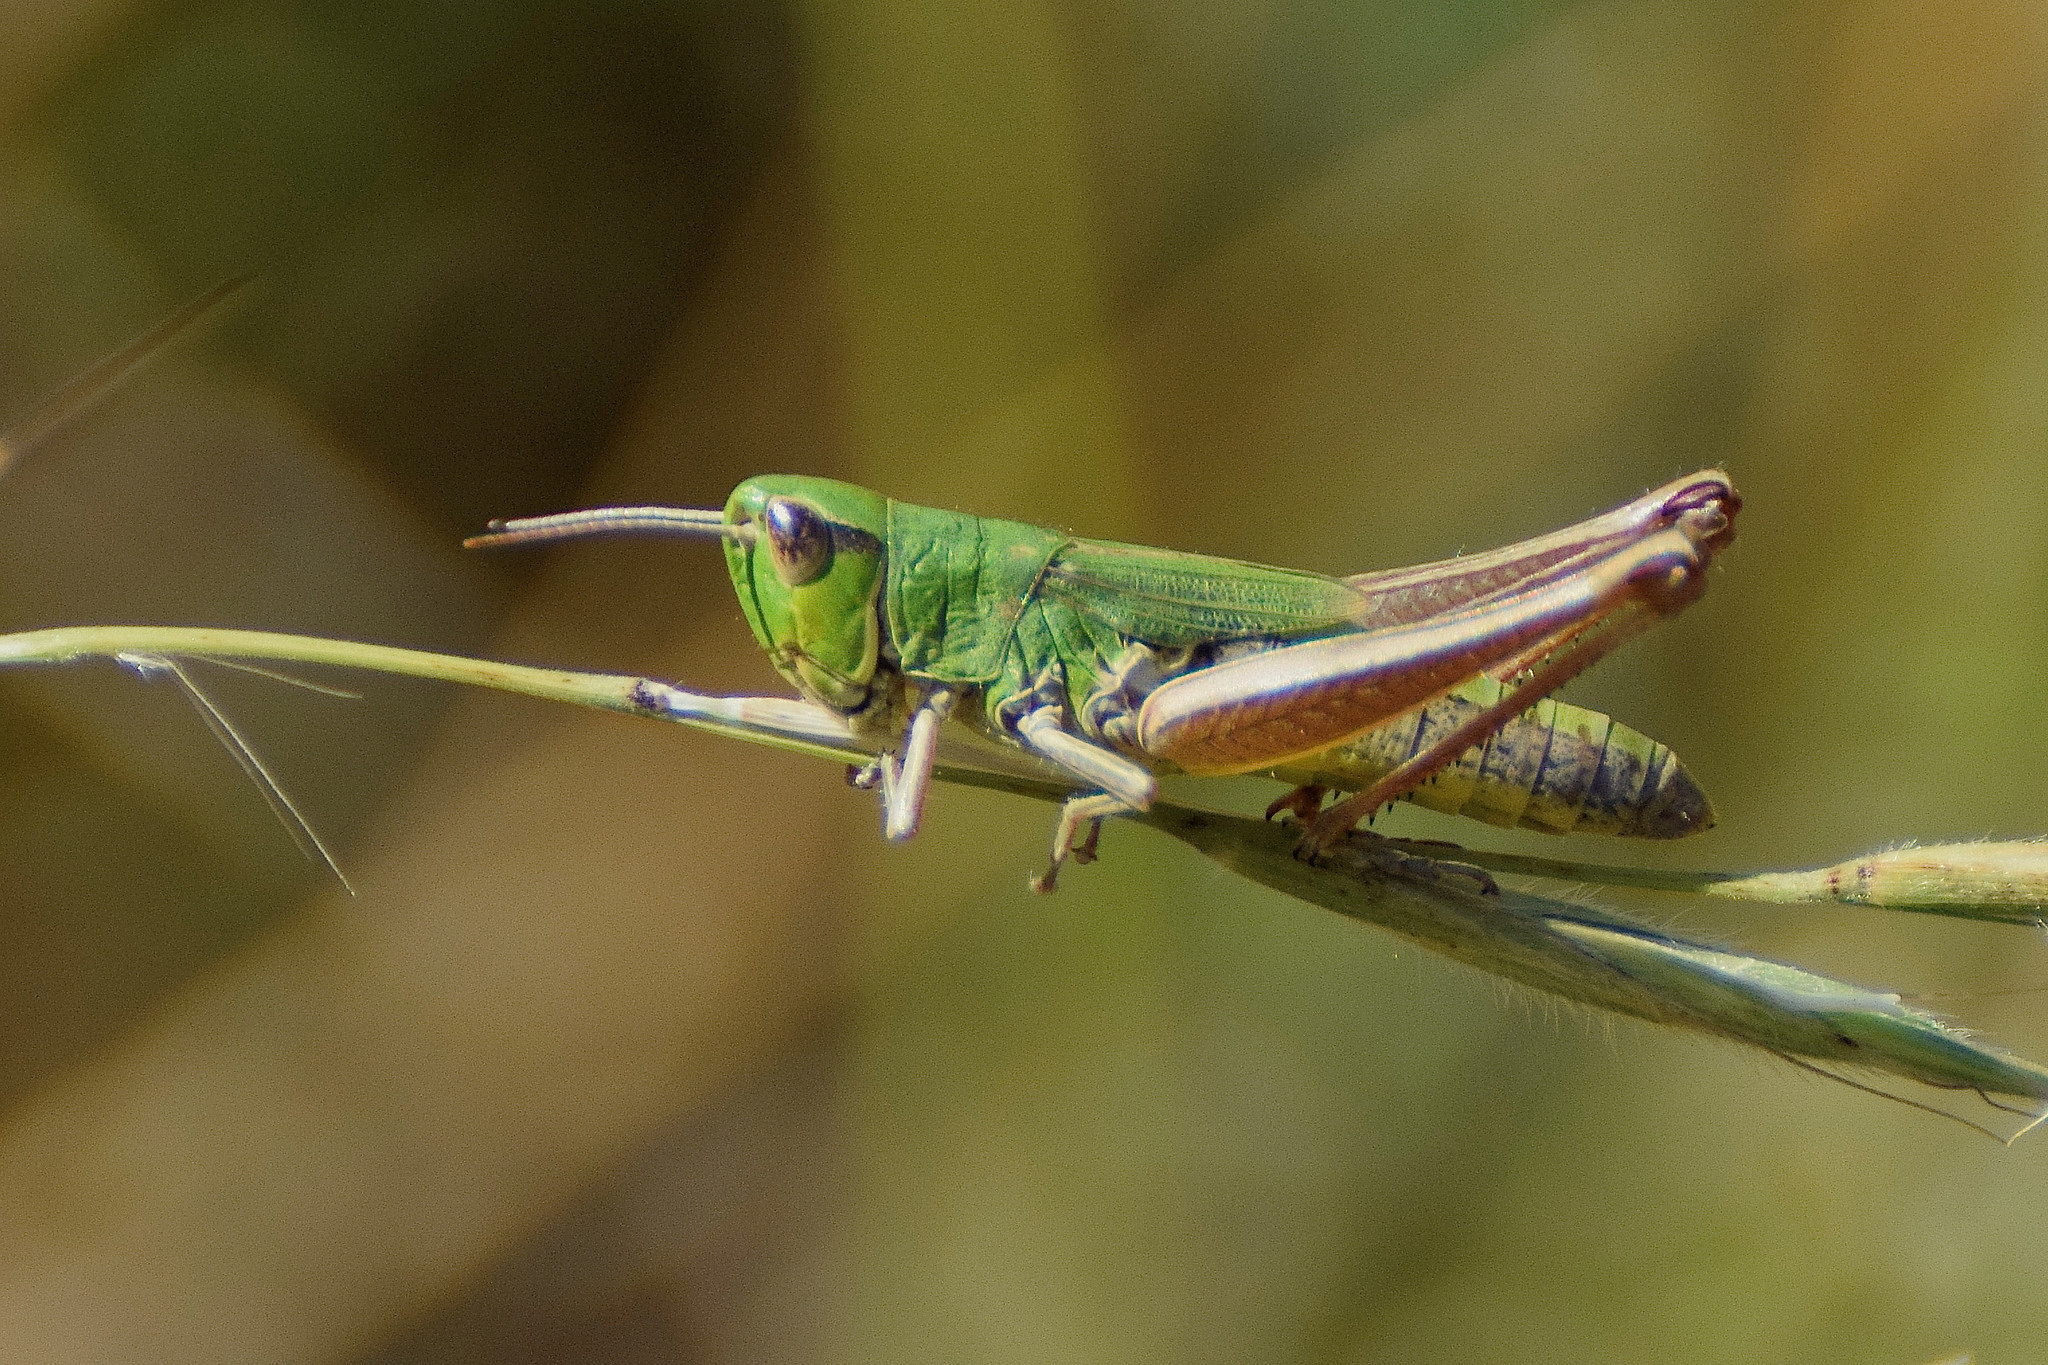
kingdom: Animalia
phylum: Arthropoda
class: Insecta
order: Orthoptera
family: Acrididae
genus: Pseudochorthippus
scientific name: Pseudochorthippus parallelus
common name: Meadow grasshopper
